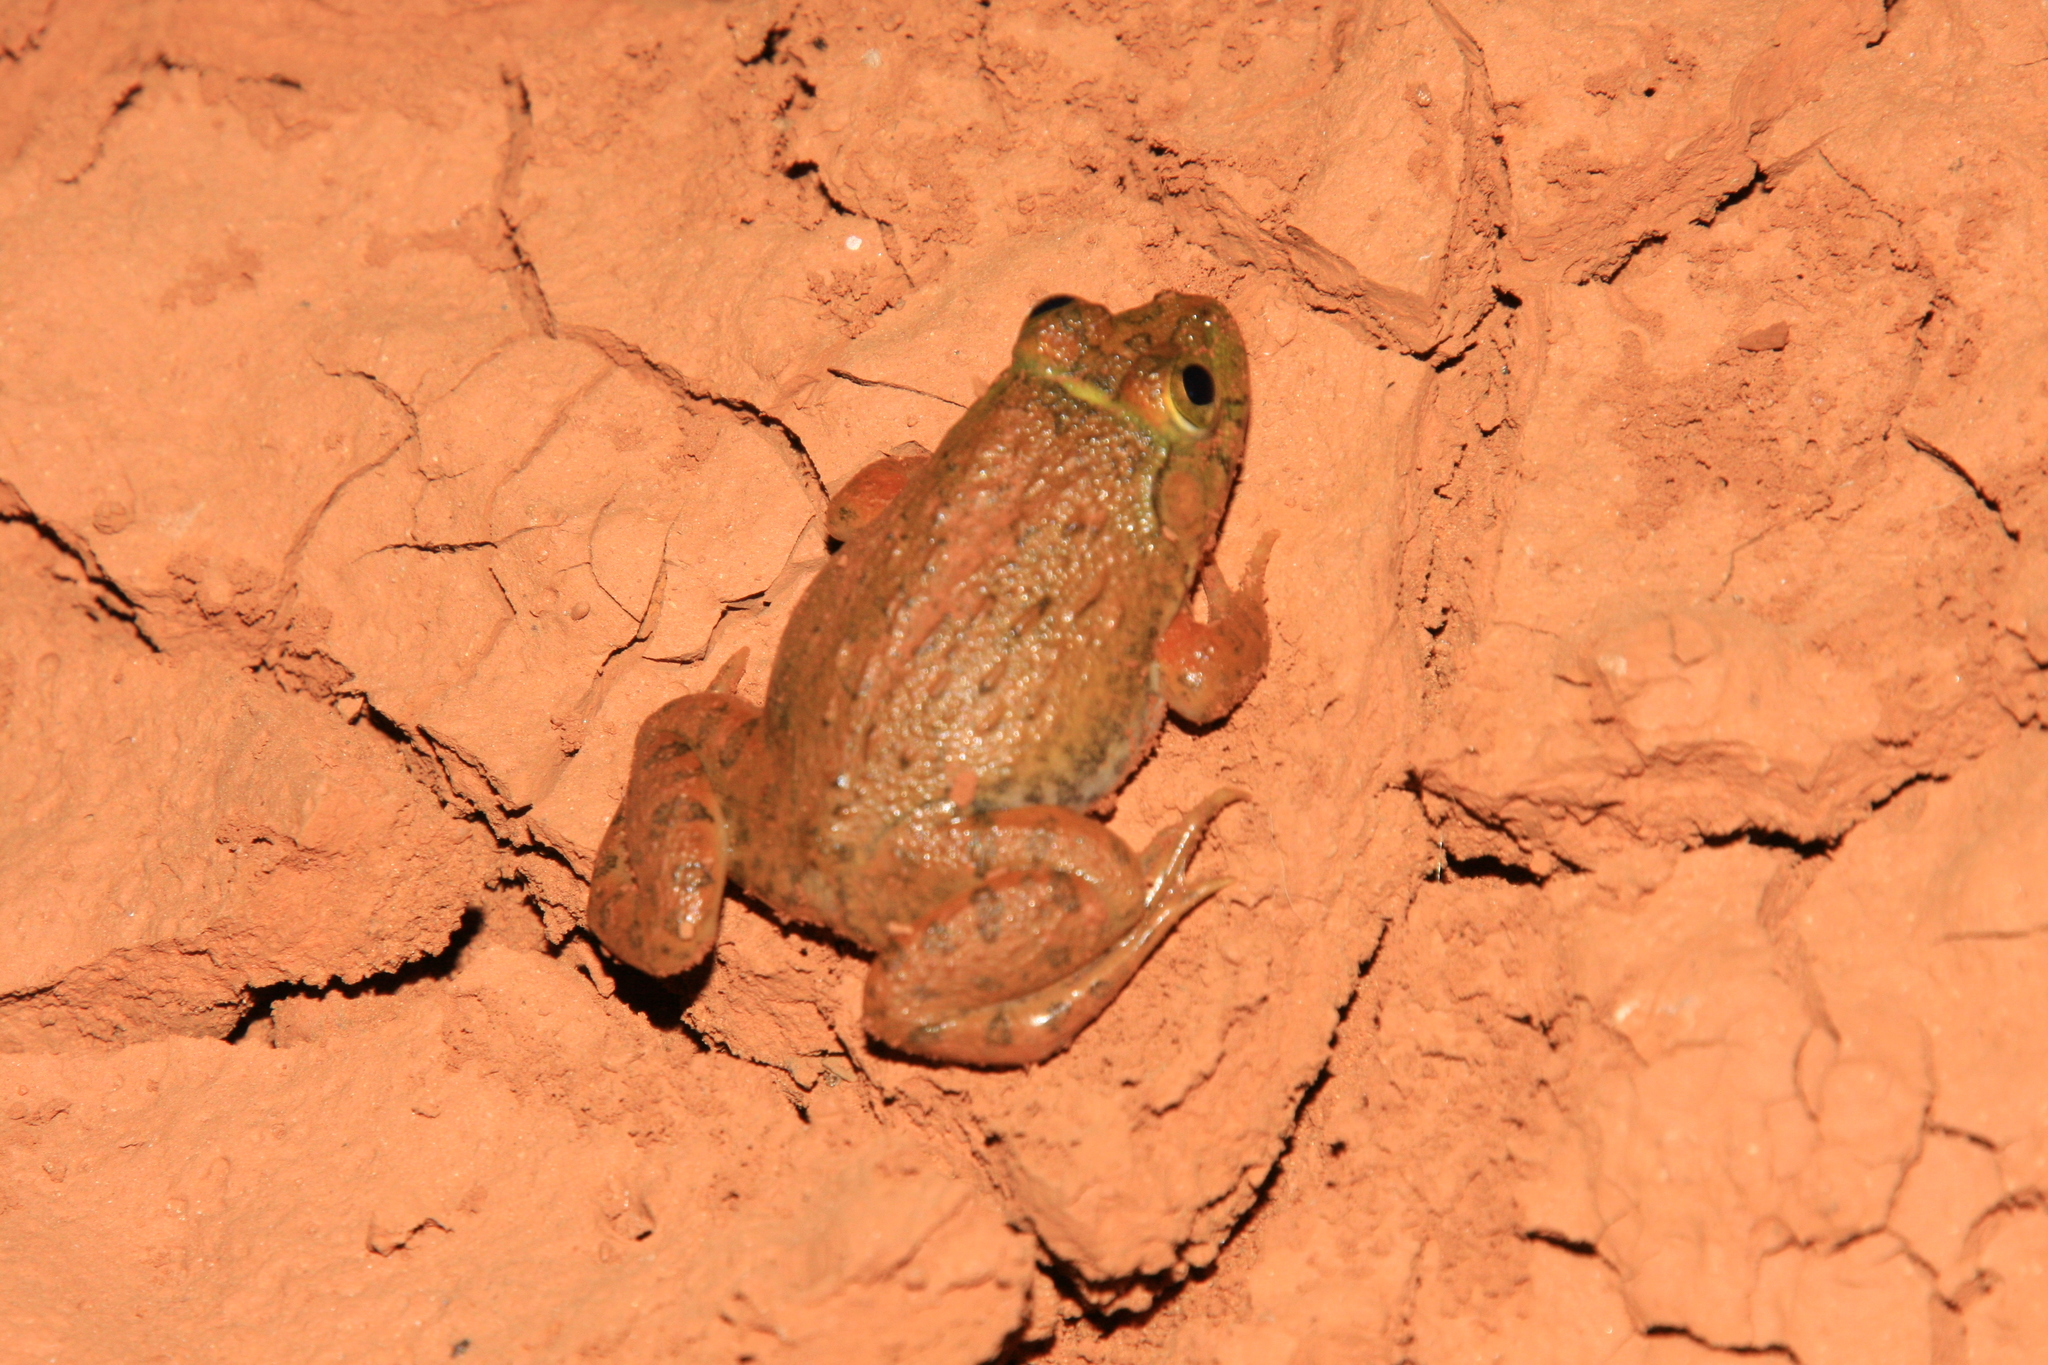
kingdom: Animalia
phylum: Chordata
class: Amphibia
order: Anura
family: Dicroglossidae
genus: Hoplobatrachus
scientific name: Hoplobatrachus occipitalis
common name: Eastern groove-crowned bullfrog
